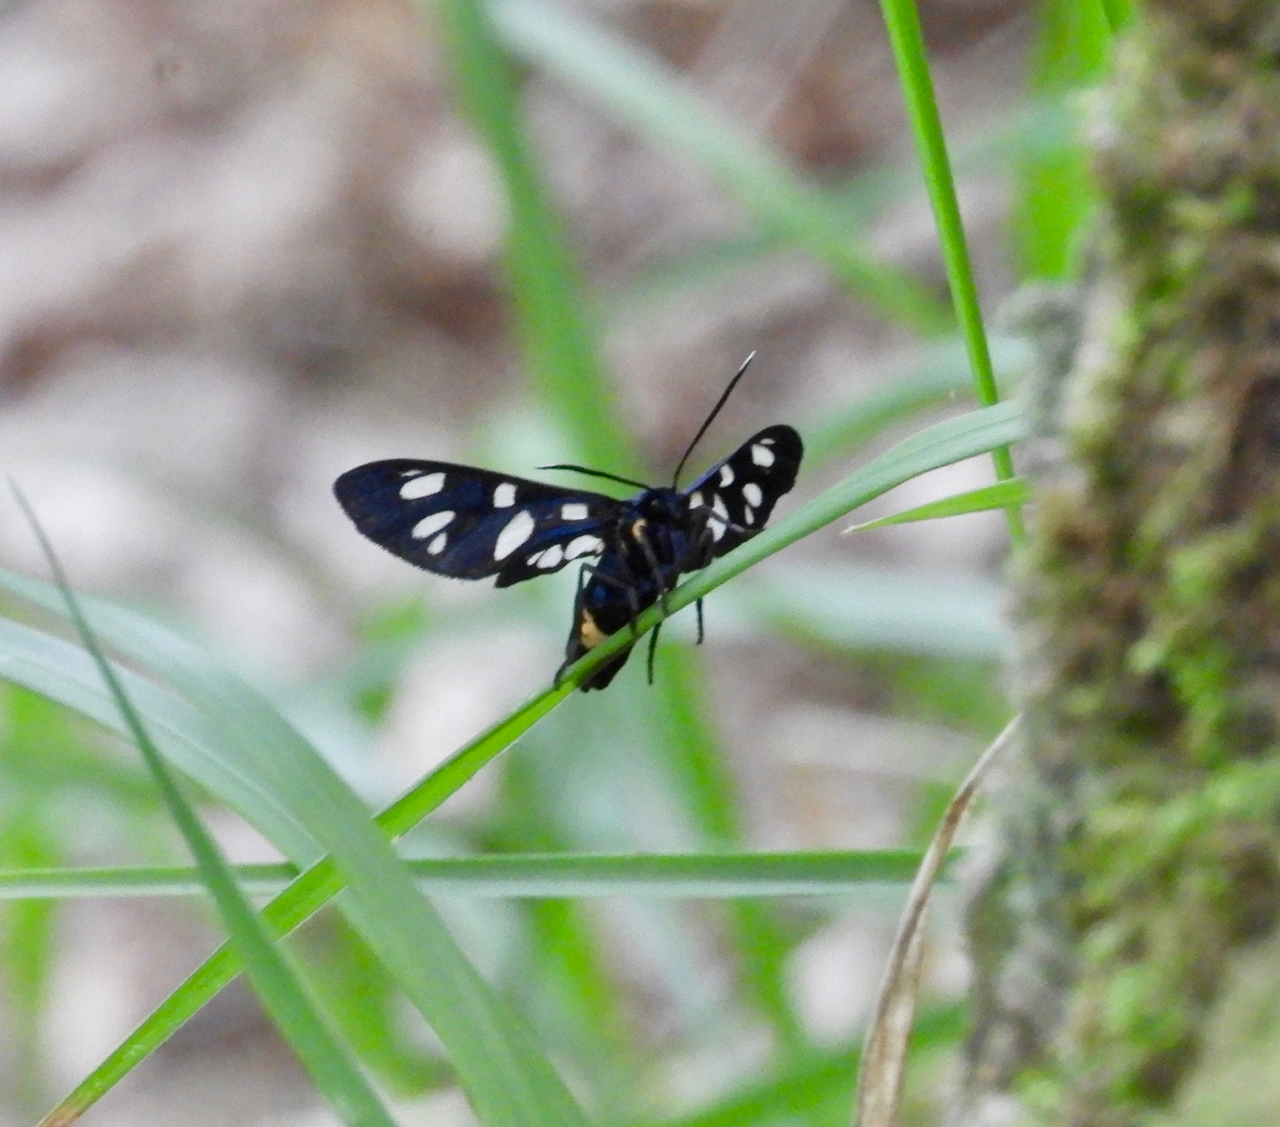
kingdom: Animalia
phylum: Arthropoda
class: Insecta
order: Lepidoptera
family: Erebidae
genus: Amata
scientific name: Amata phegea
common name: Nine-spotted
